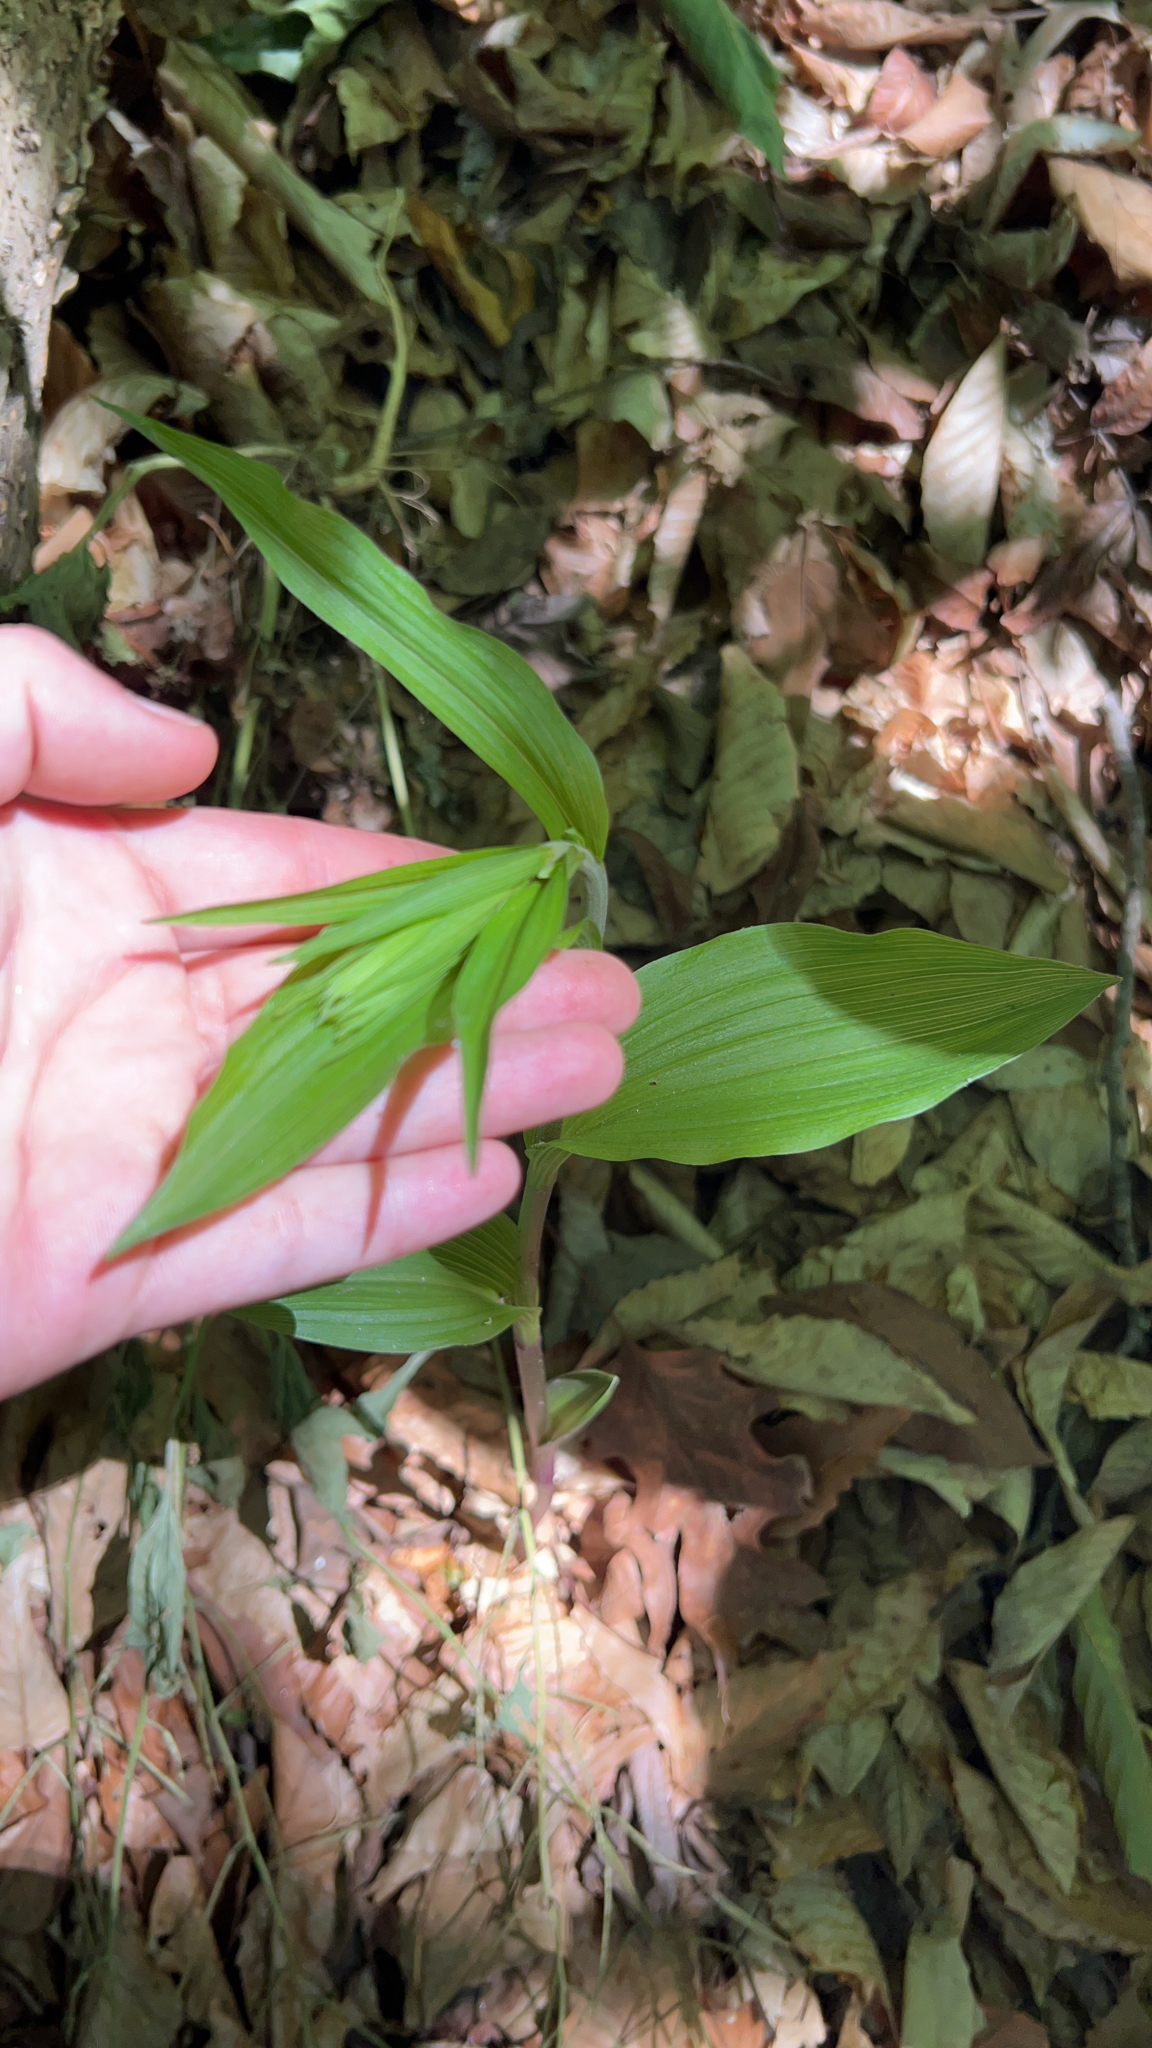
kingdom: Plantae
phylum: Tracheophyta
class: Liliopsida
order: Asparagales
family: Orchidaceae
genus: Epipactis
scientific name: Epipactis helleborine
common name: Broad-leaved helleborine
